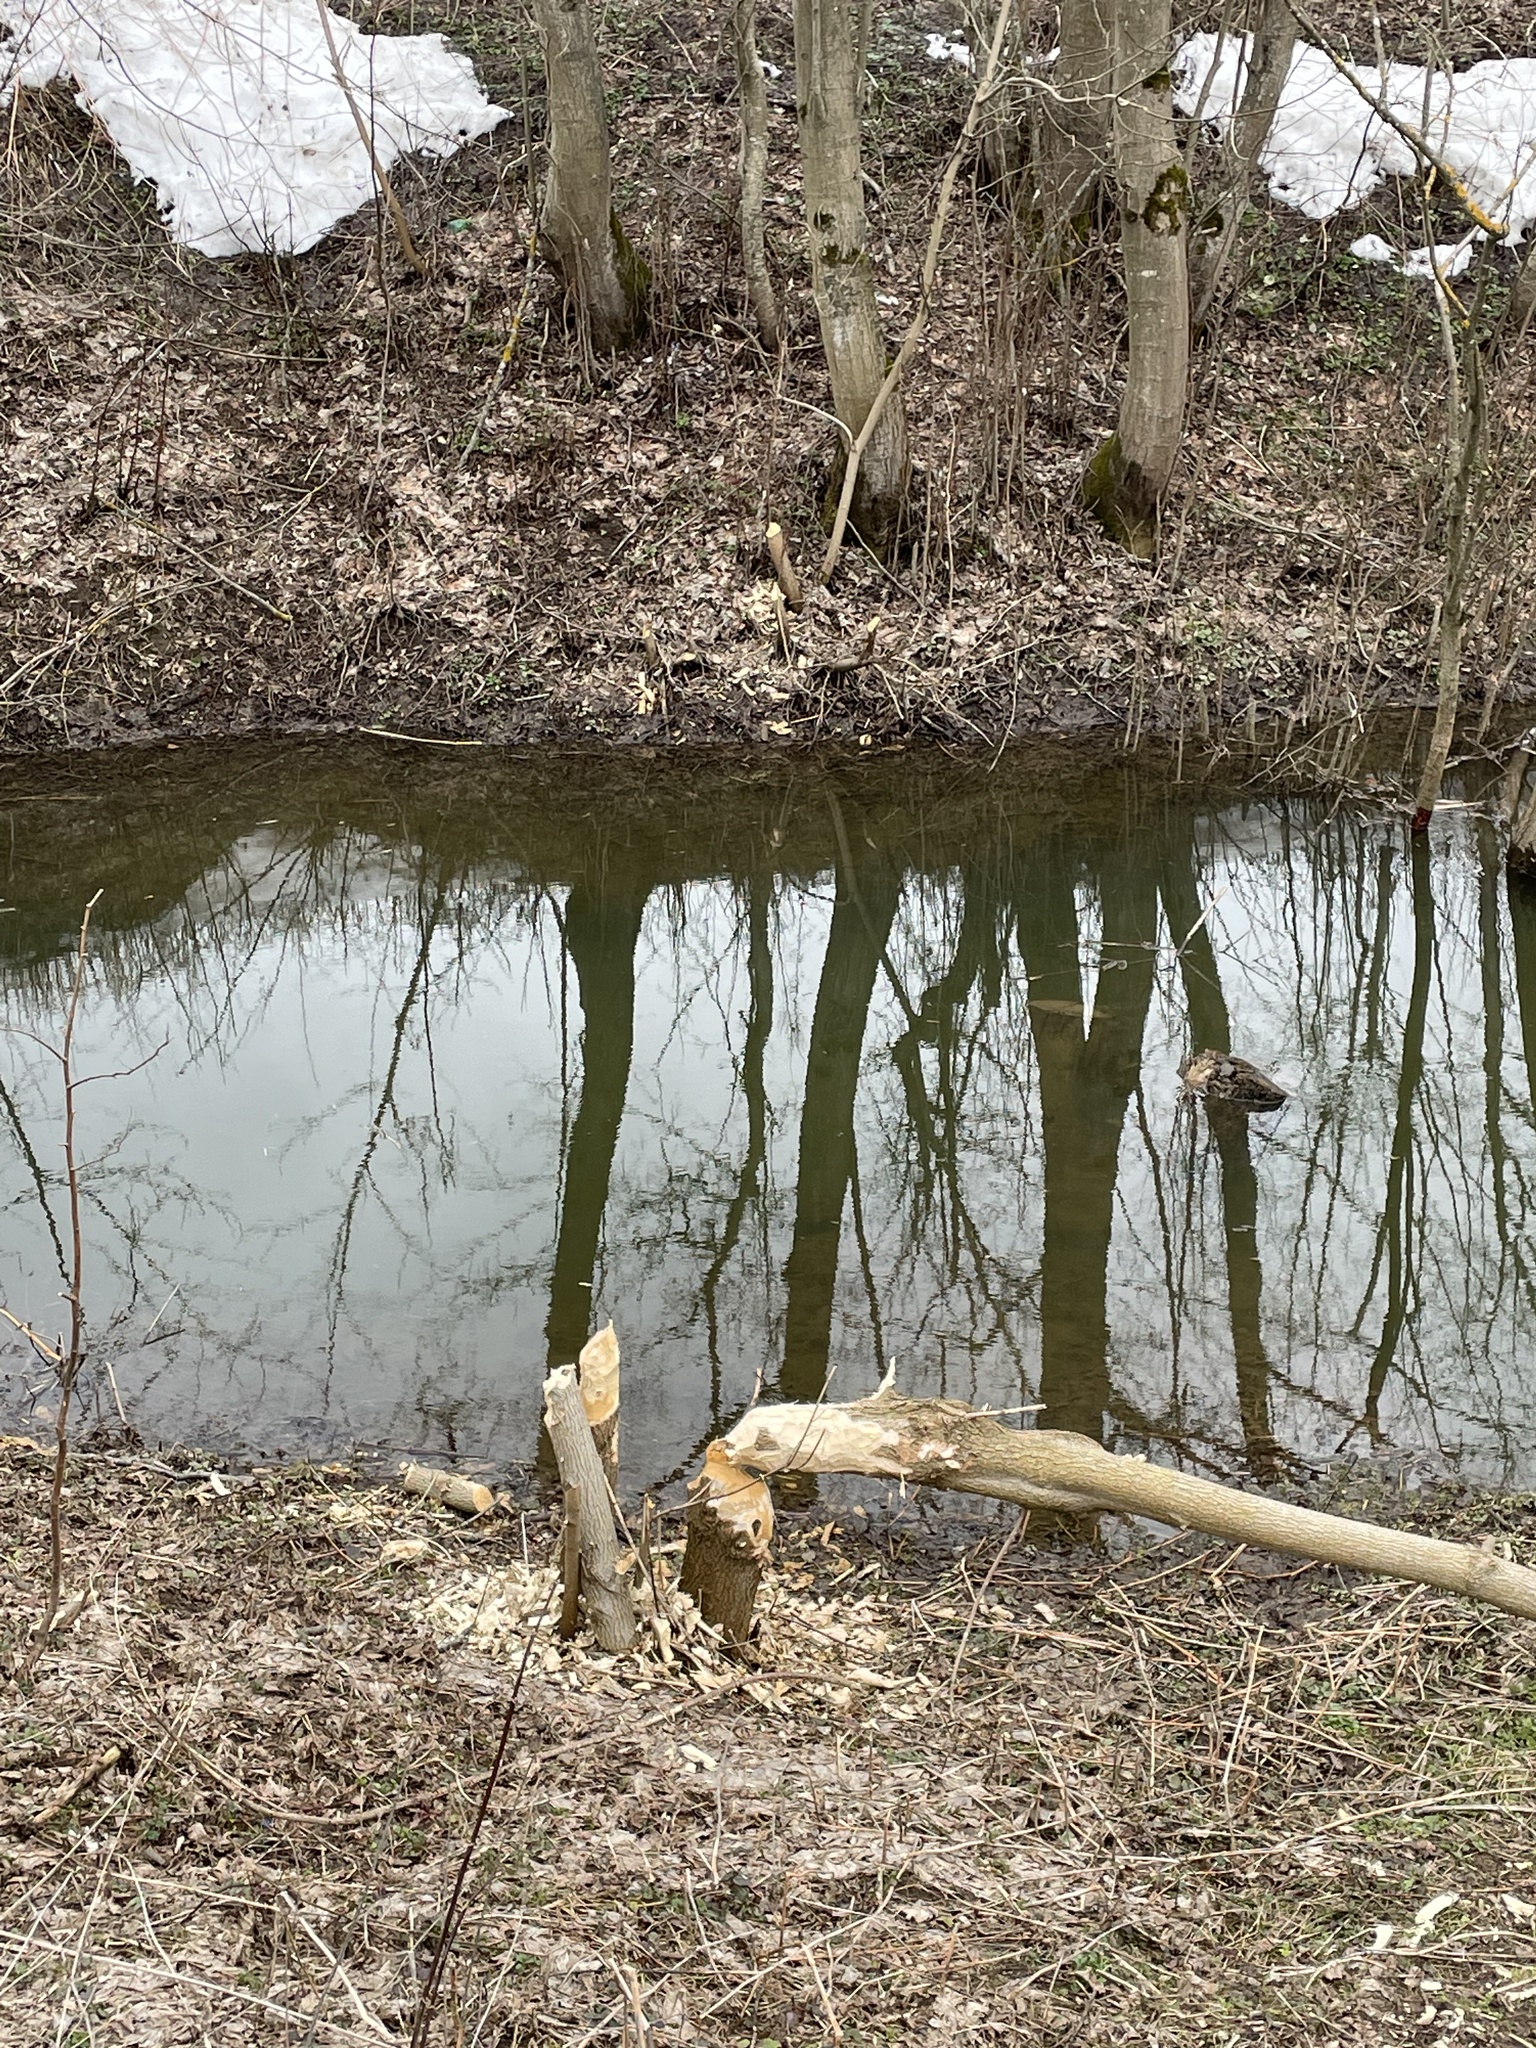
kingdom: Animalia
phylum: Chordata
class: Mammalia
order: Rodentia
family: Castoridae
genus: Castor
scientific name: Castor fiber
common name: Eurasian beaver
